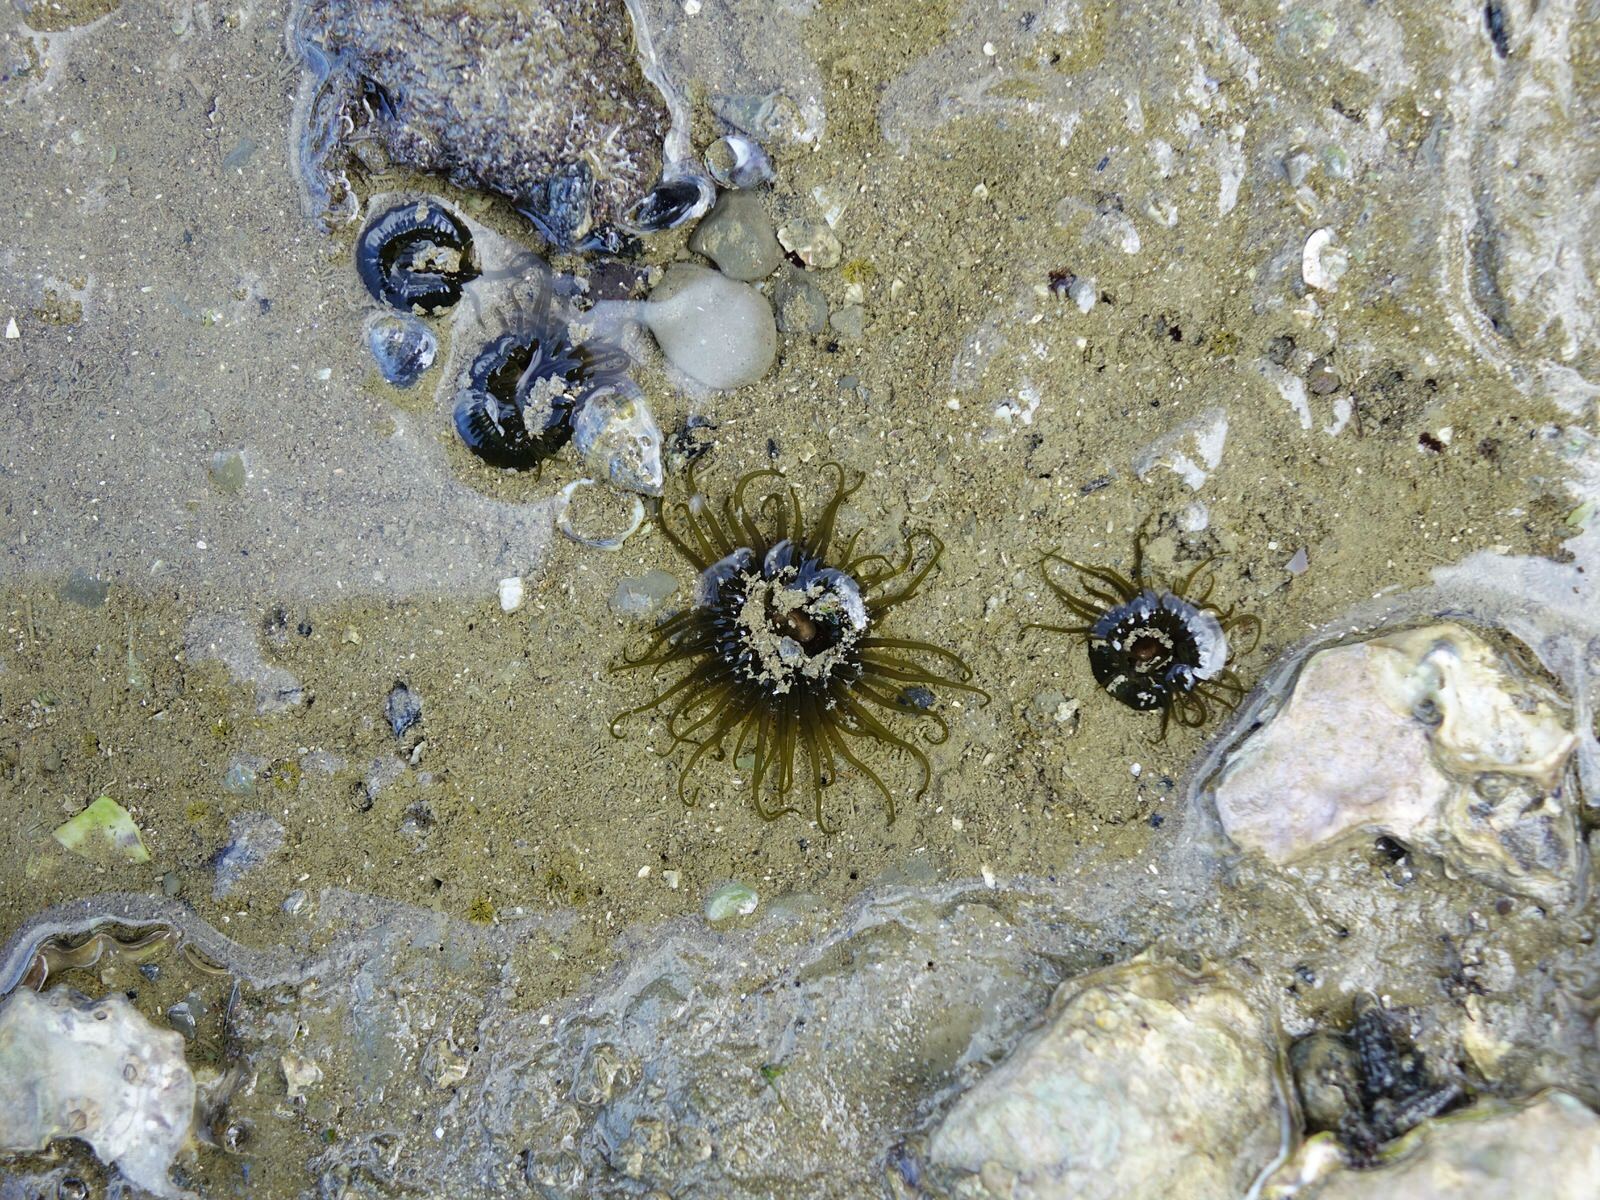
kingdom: Animalia
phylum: Cnidaria
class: Anthozoa
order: Actiniaria
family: Actiniidae
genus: Isactinia
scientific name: Isactinia olivacea
